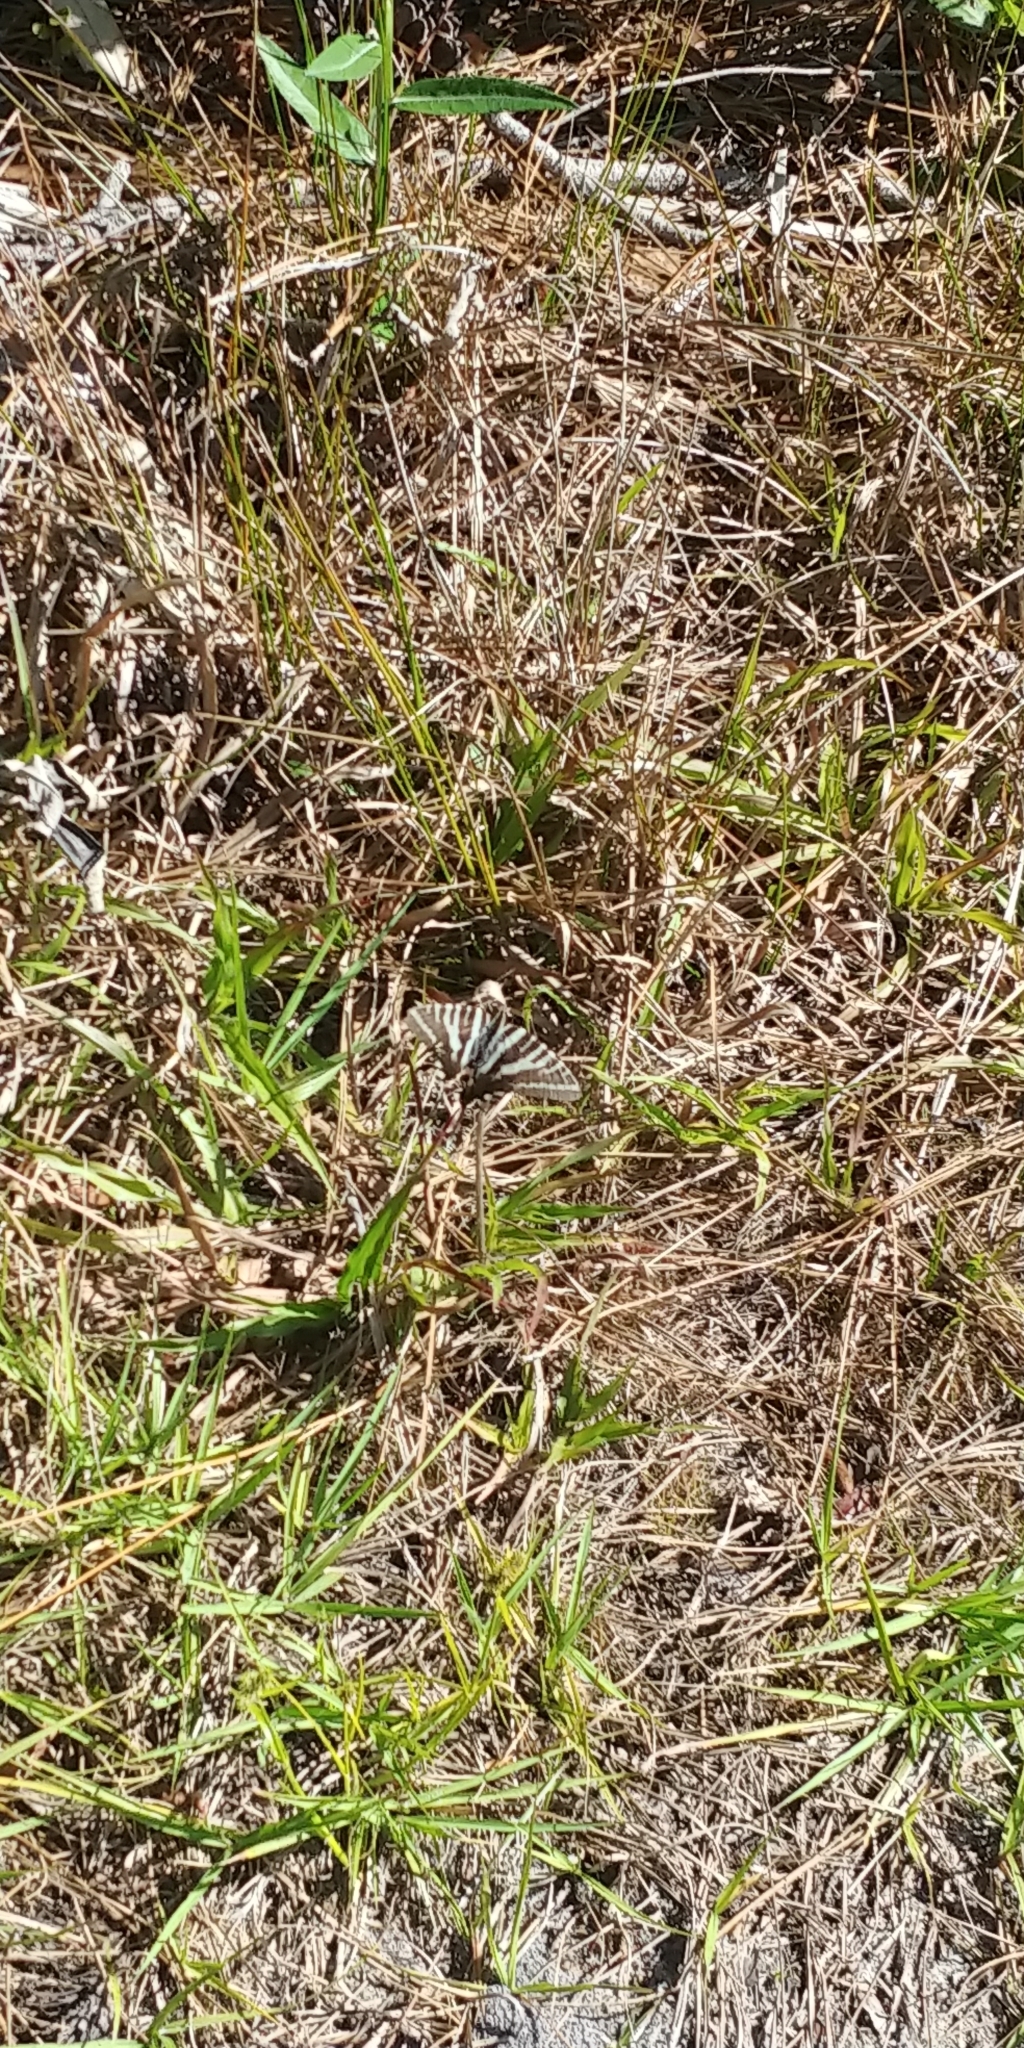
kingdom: Animalia
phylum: Arthropoda
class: Insecta
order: Lepidoptera
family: Papilionidae
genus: Protographium
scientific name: Protographium marcellus
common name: Zebra swallowtail
